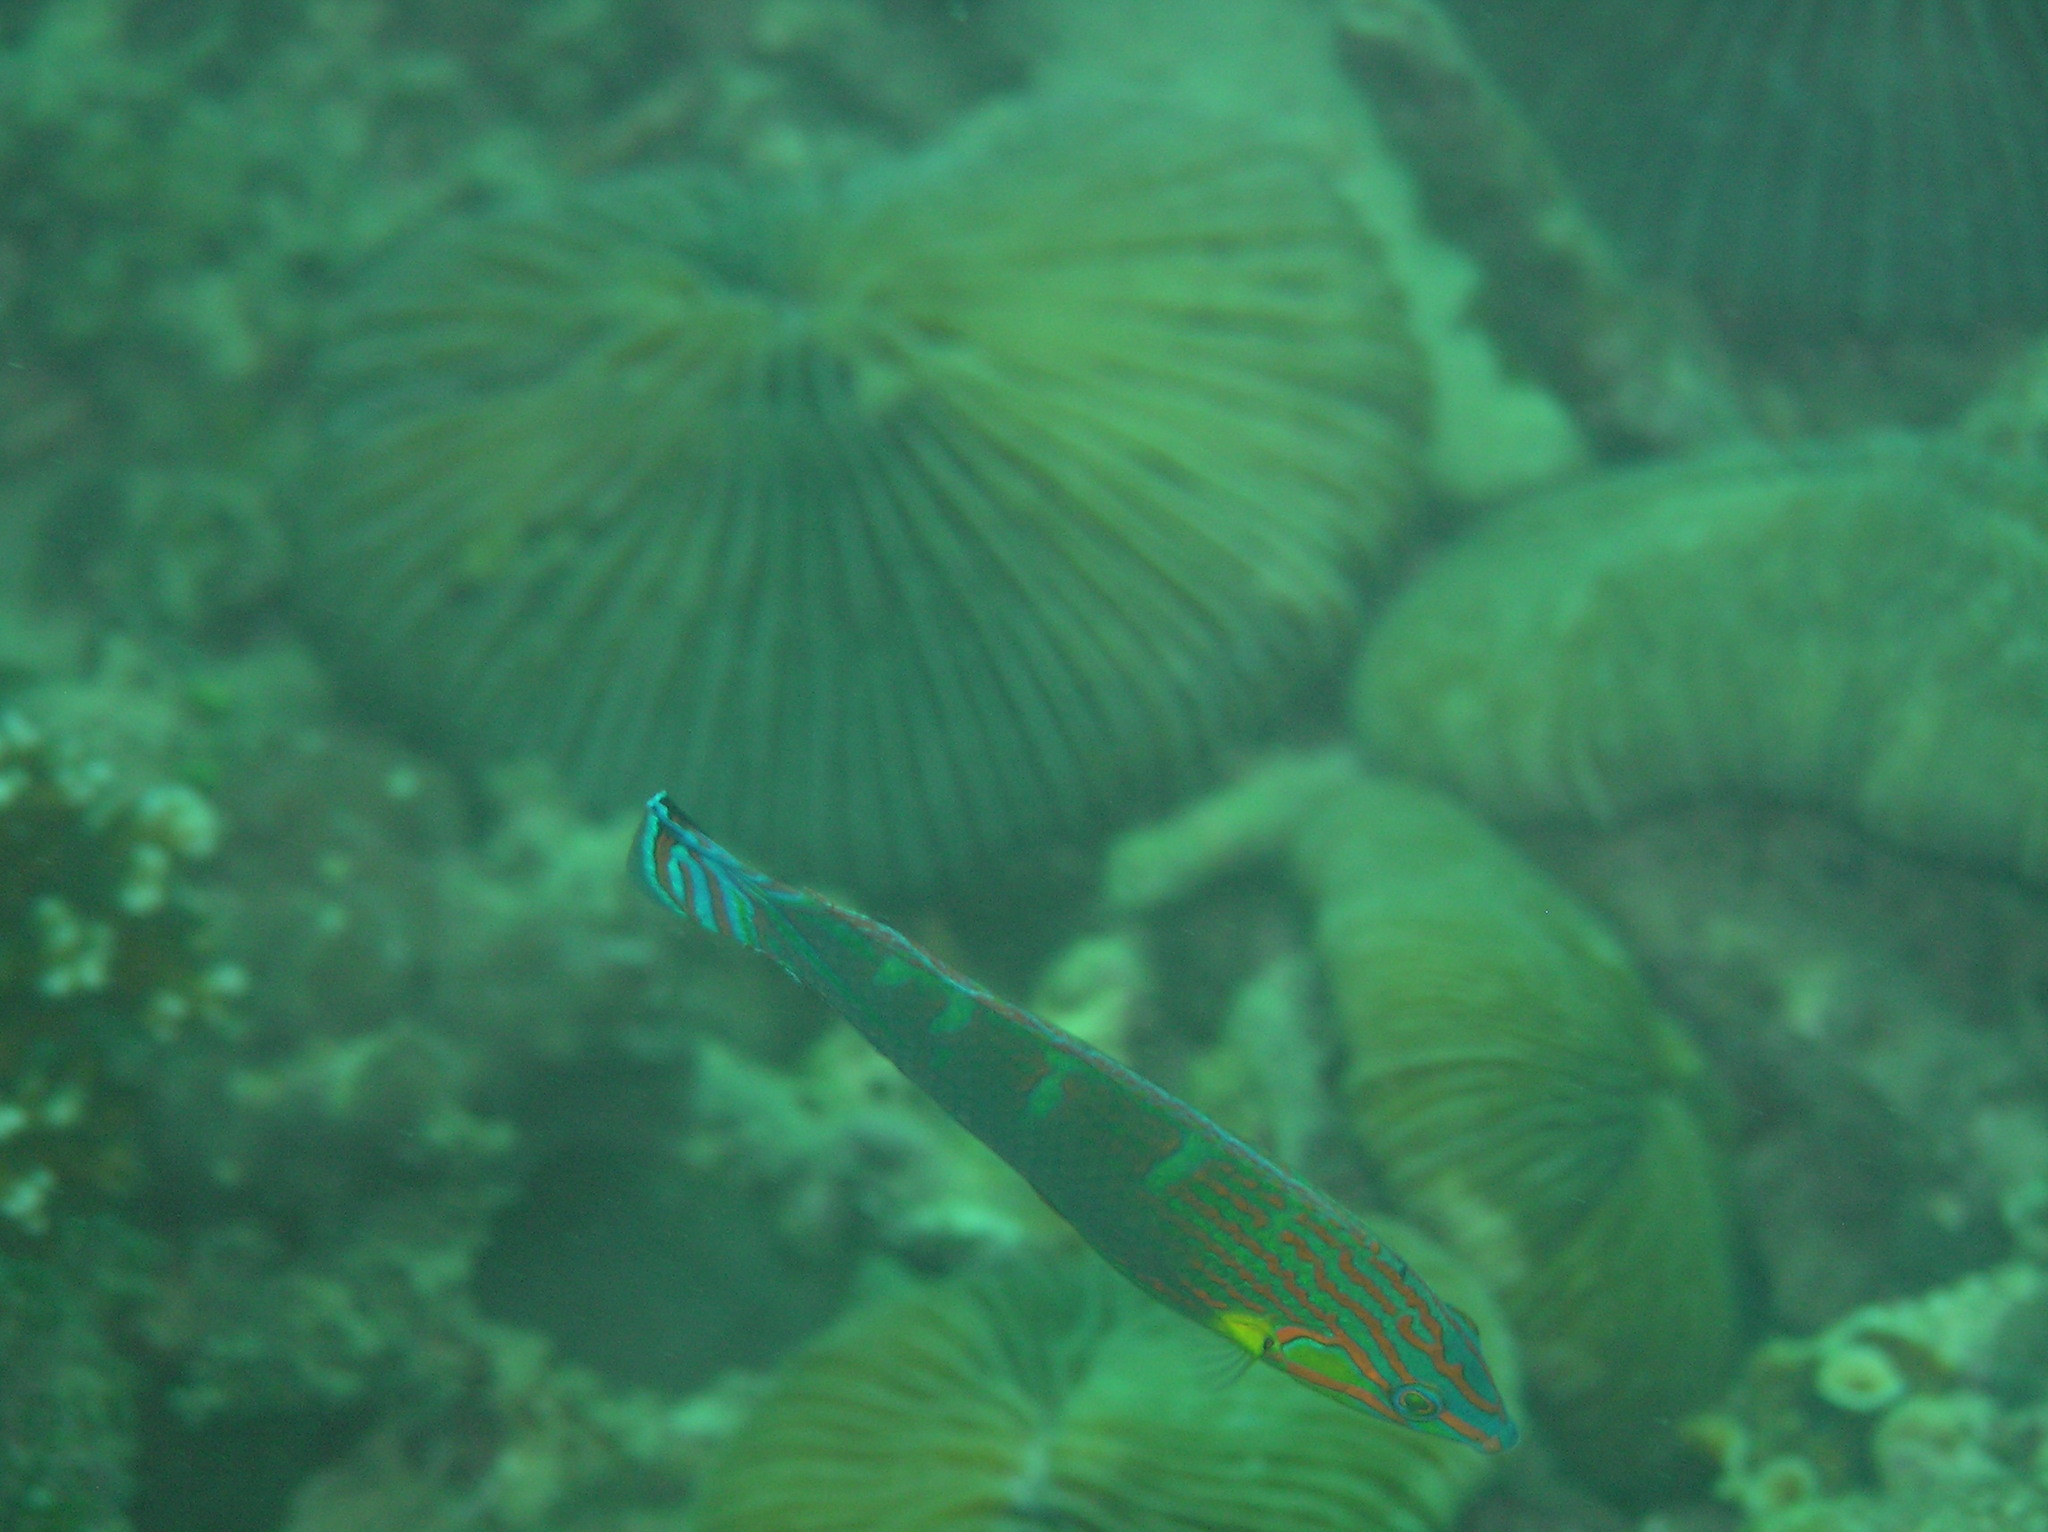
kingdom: Animalia
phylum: Chordata
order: Perciformes
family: Labridae
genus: Halichoeres
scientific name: Halichoeres melanurus
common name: Hoeven's wrasse
